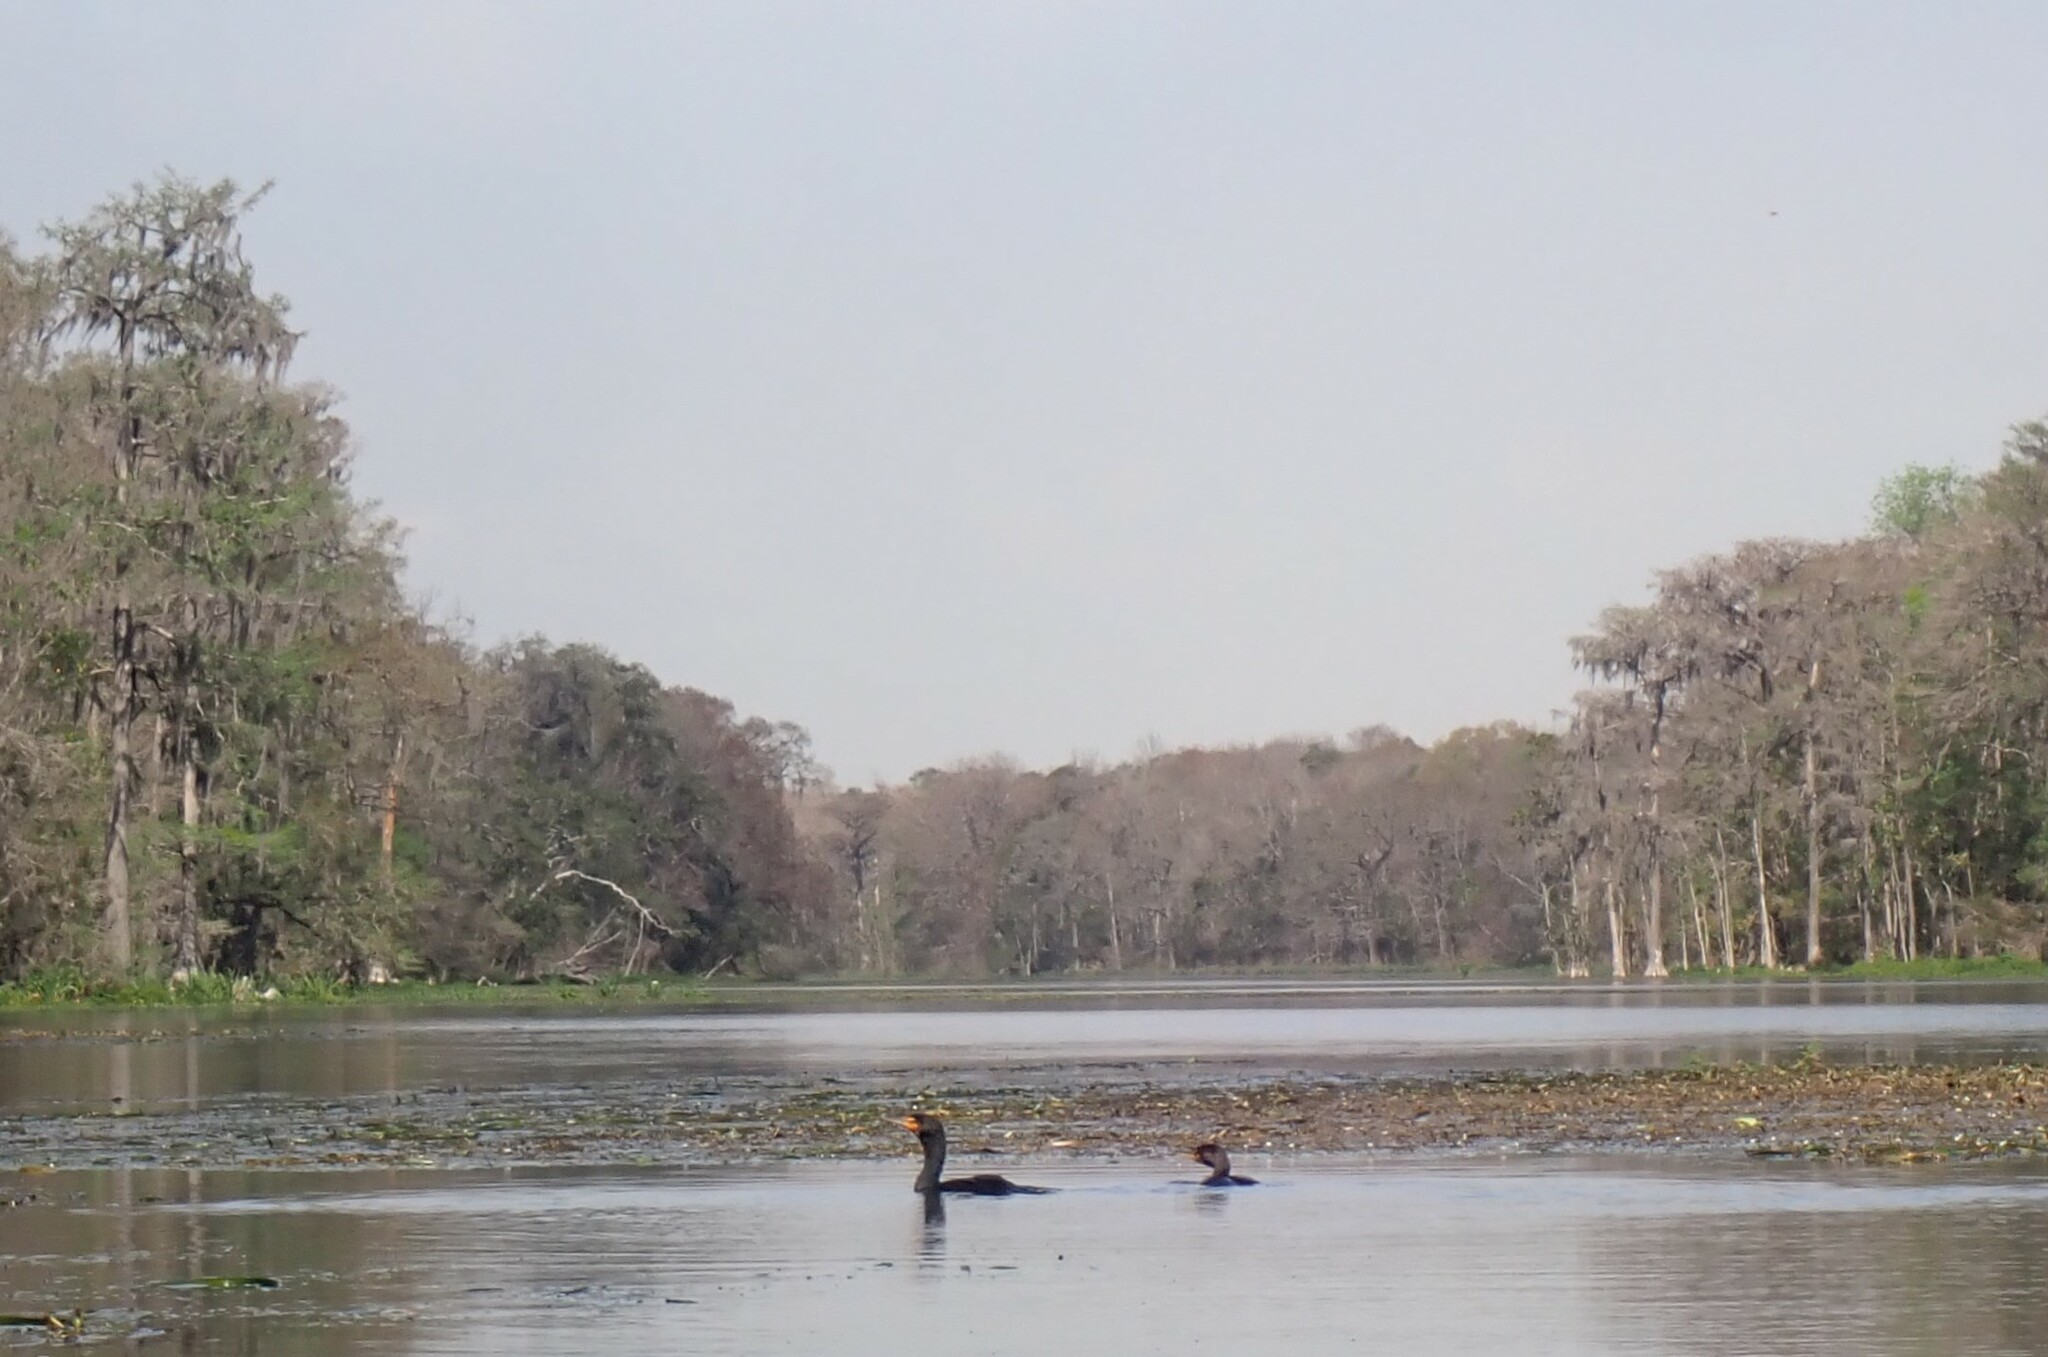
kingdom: Animalia
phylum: Chordata
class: Aves
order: Suliformes
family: Phalacrocoracidae
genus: Phalacrocorax
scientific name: Phalacrocorax auritus
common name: Double-crested cormorant
